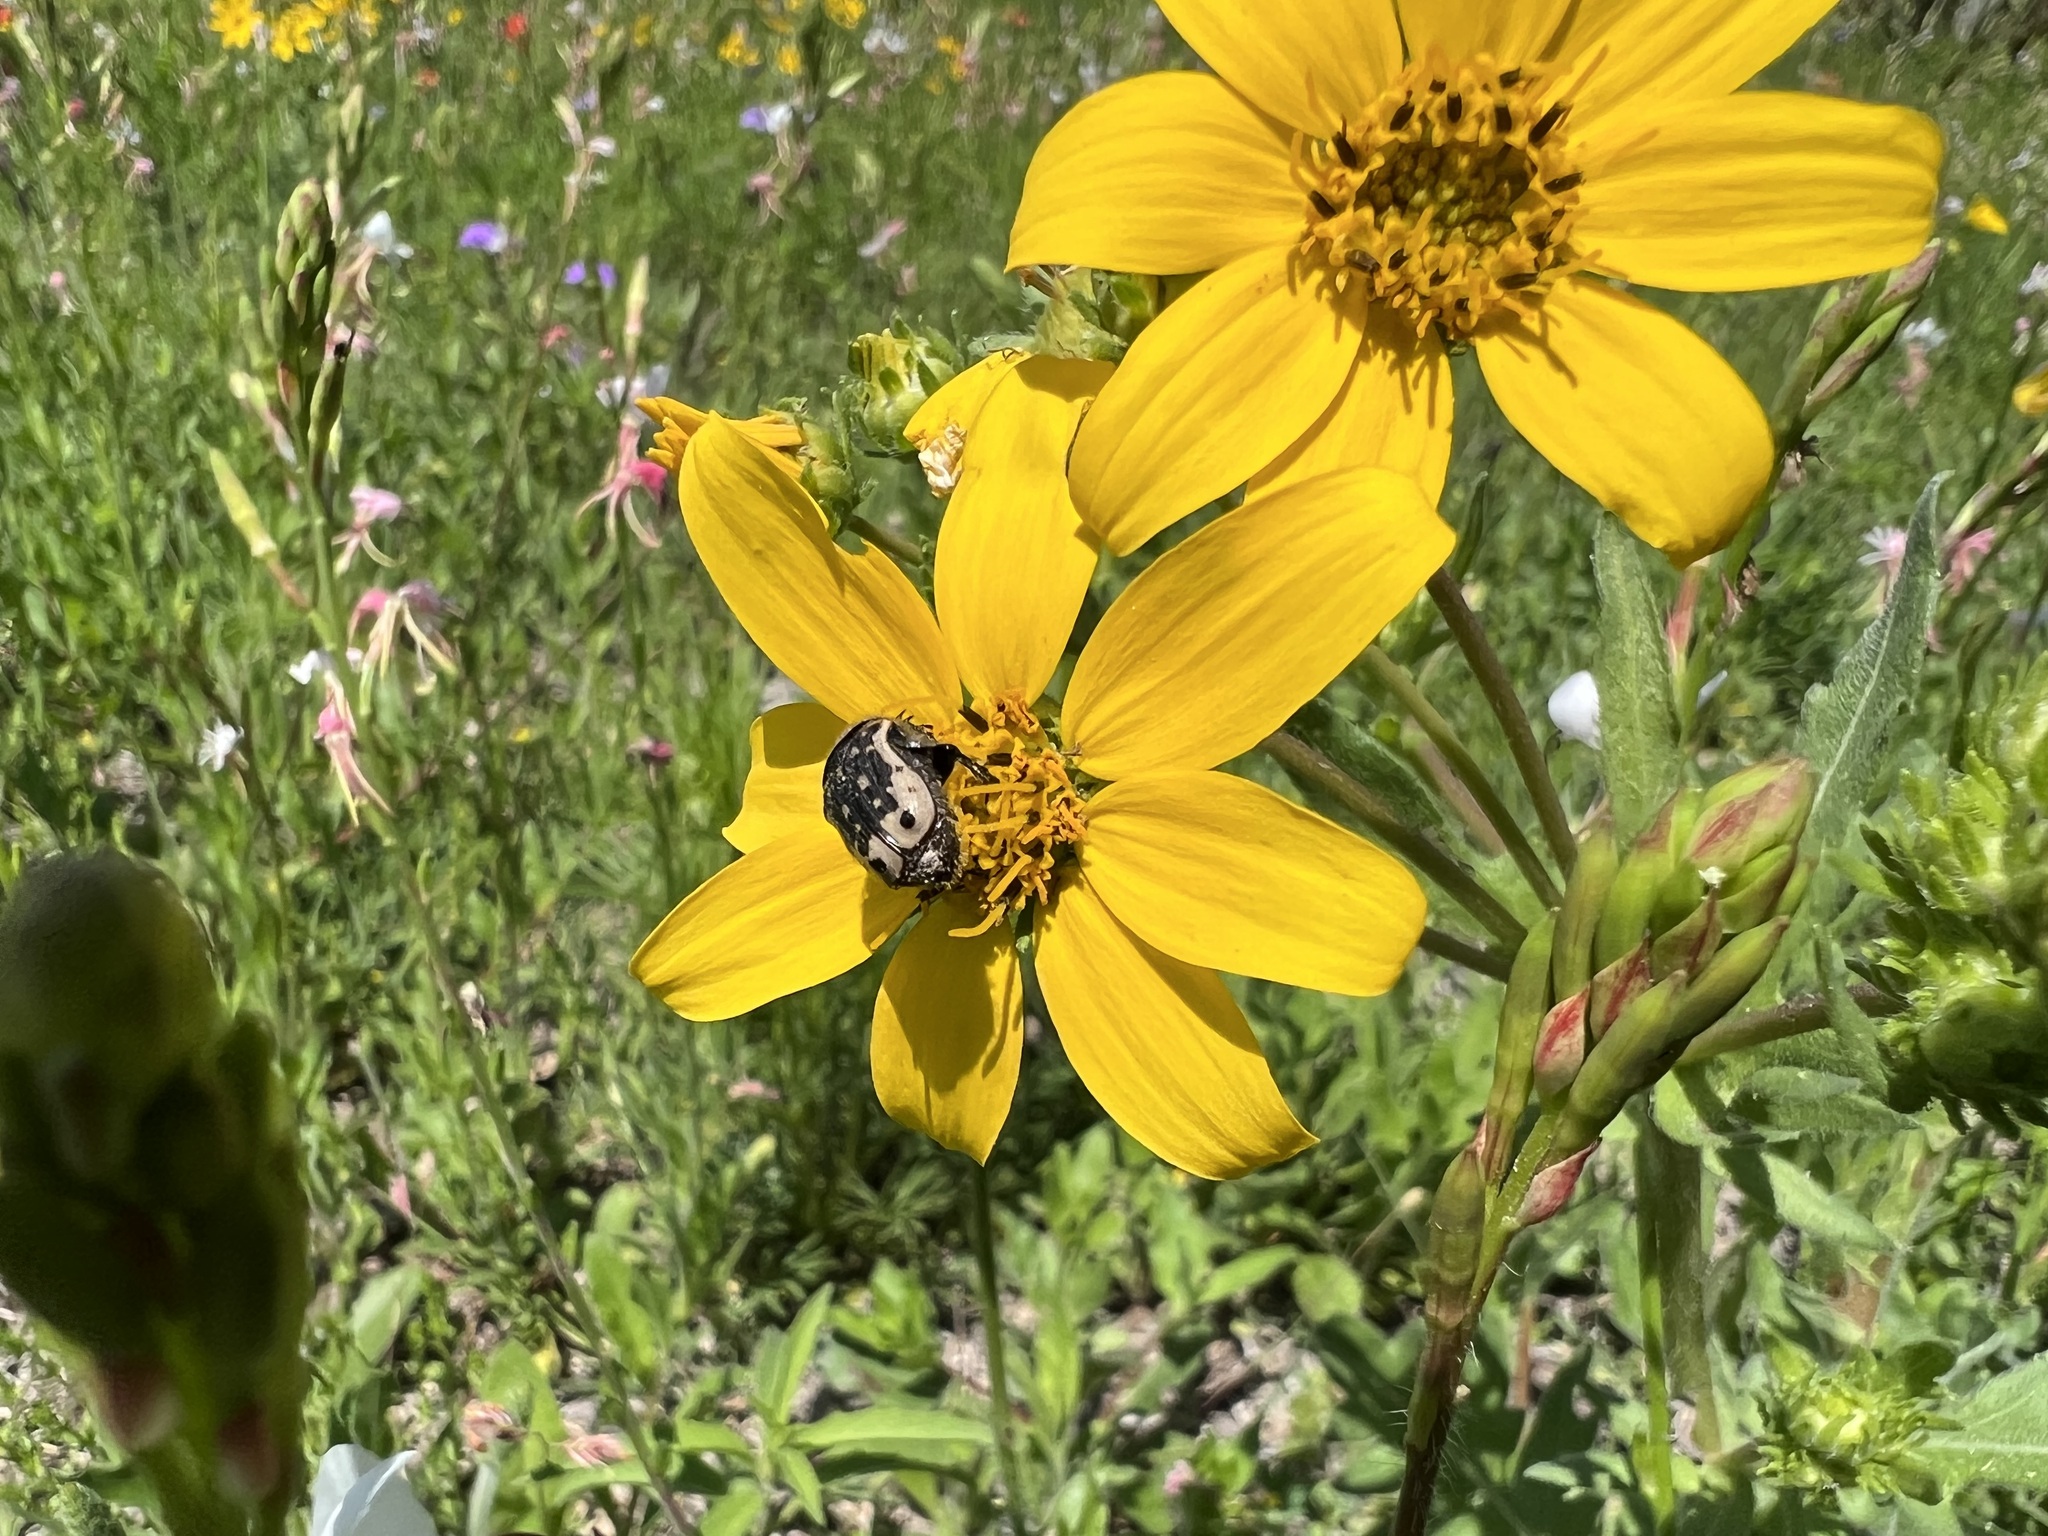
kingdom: Animalia
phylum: Arthropoda
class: Insecta
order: Coleoptera
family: Scarabaeidae
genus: Euphoria
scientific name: Euphoria kernii
